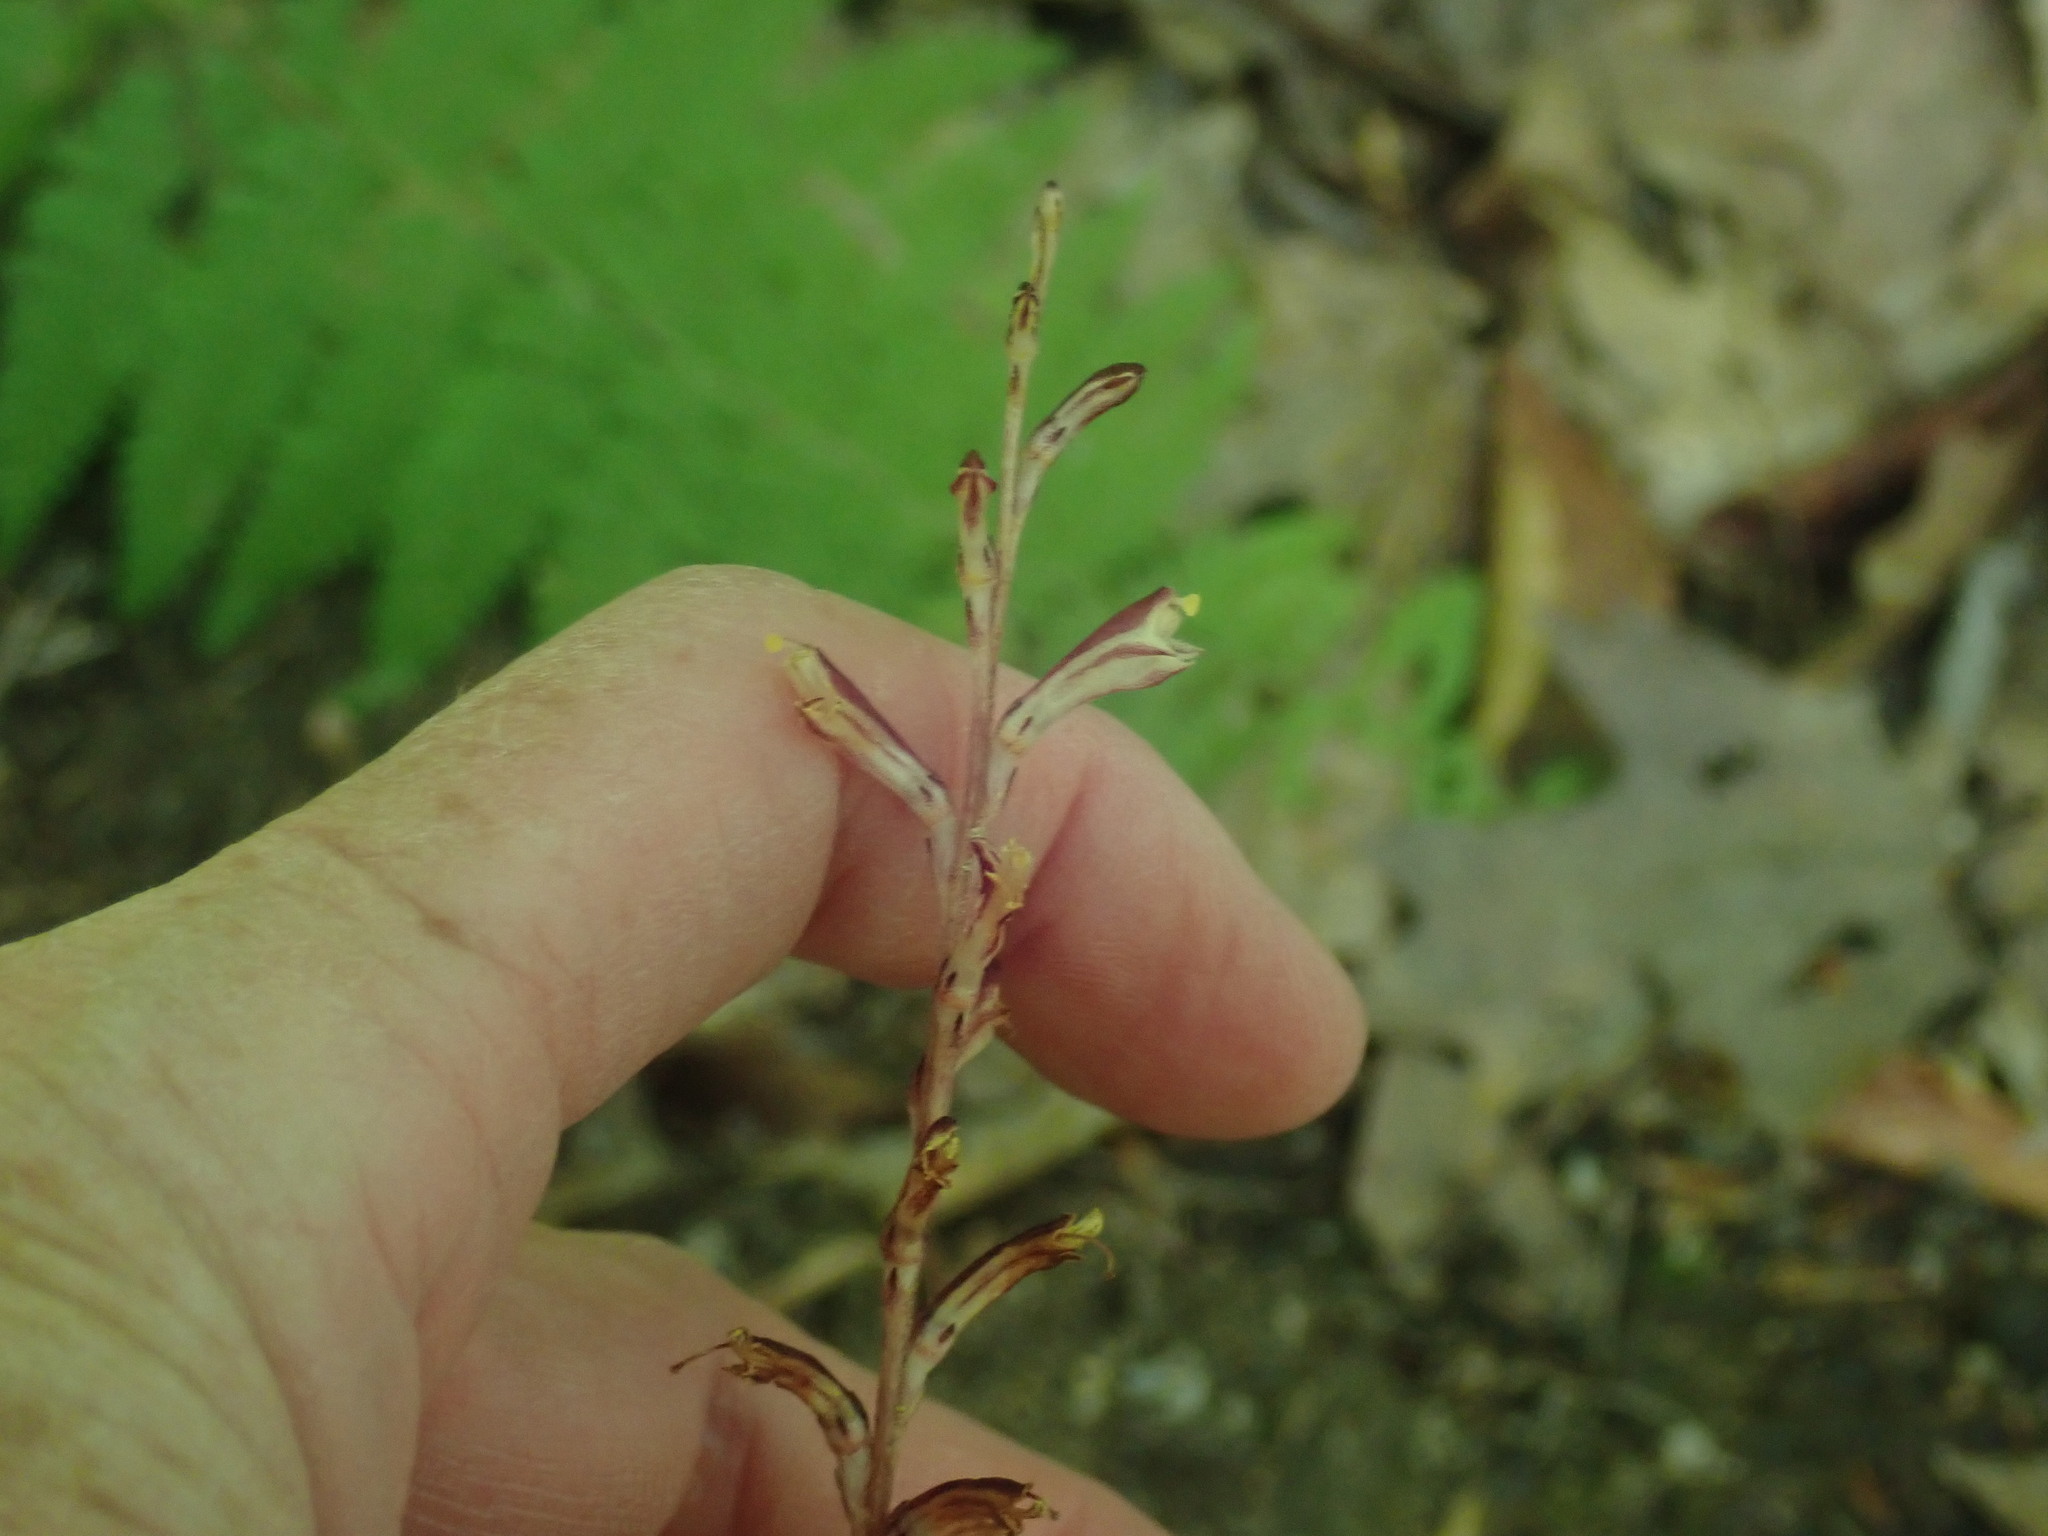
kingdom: Plantae
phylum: Tracheophyta
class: Magnoliopsida
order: Lamiales
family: Orobanchaceae
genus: Epifagus
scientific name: Epifagus virginiana
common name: Beechdrops
